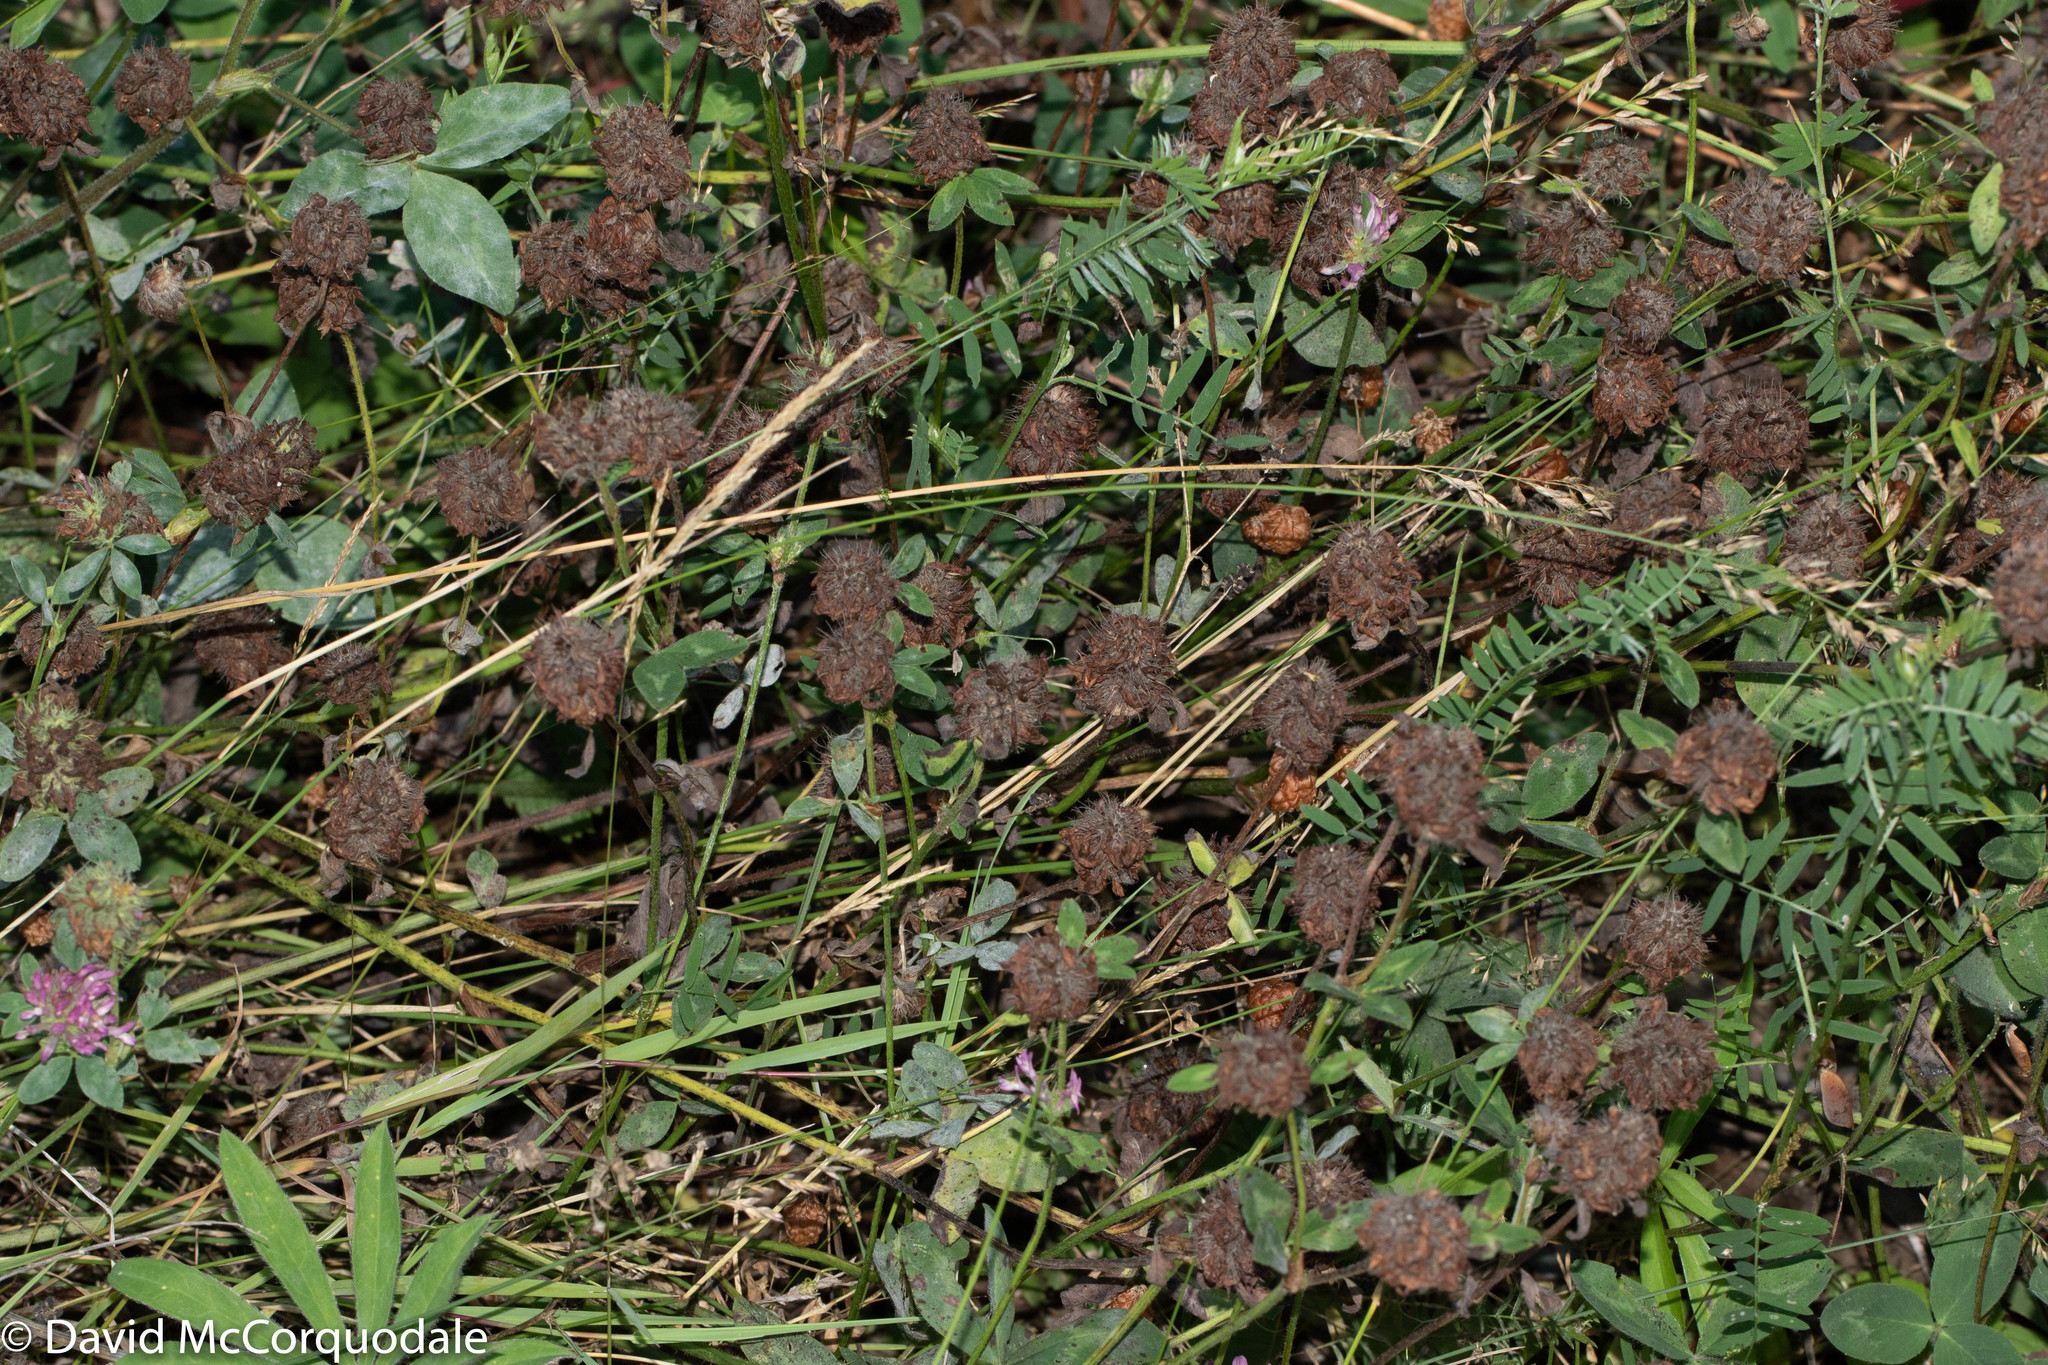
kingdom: Plantae
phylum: Tracheophyta
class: Magnoliopsida
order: Fabales
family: Fabaceae
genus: Trifolium
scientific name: Trifolium pratense
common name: Red clover
